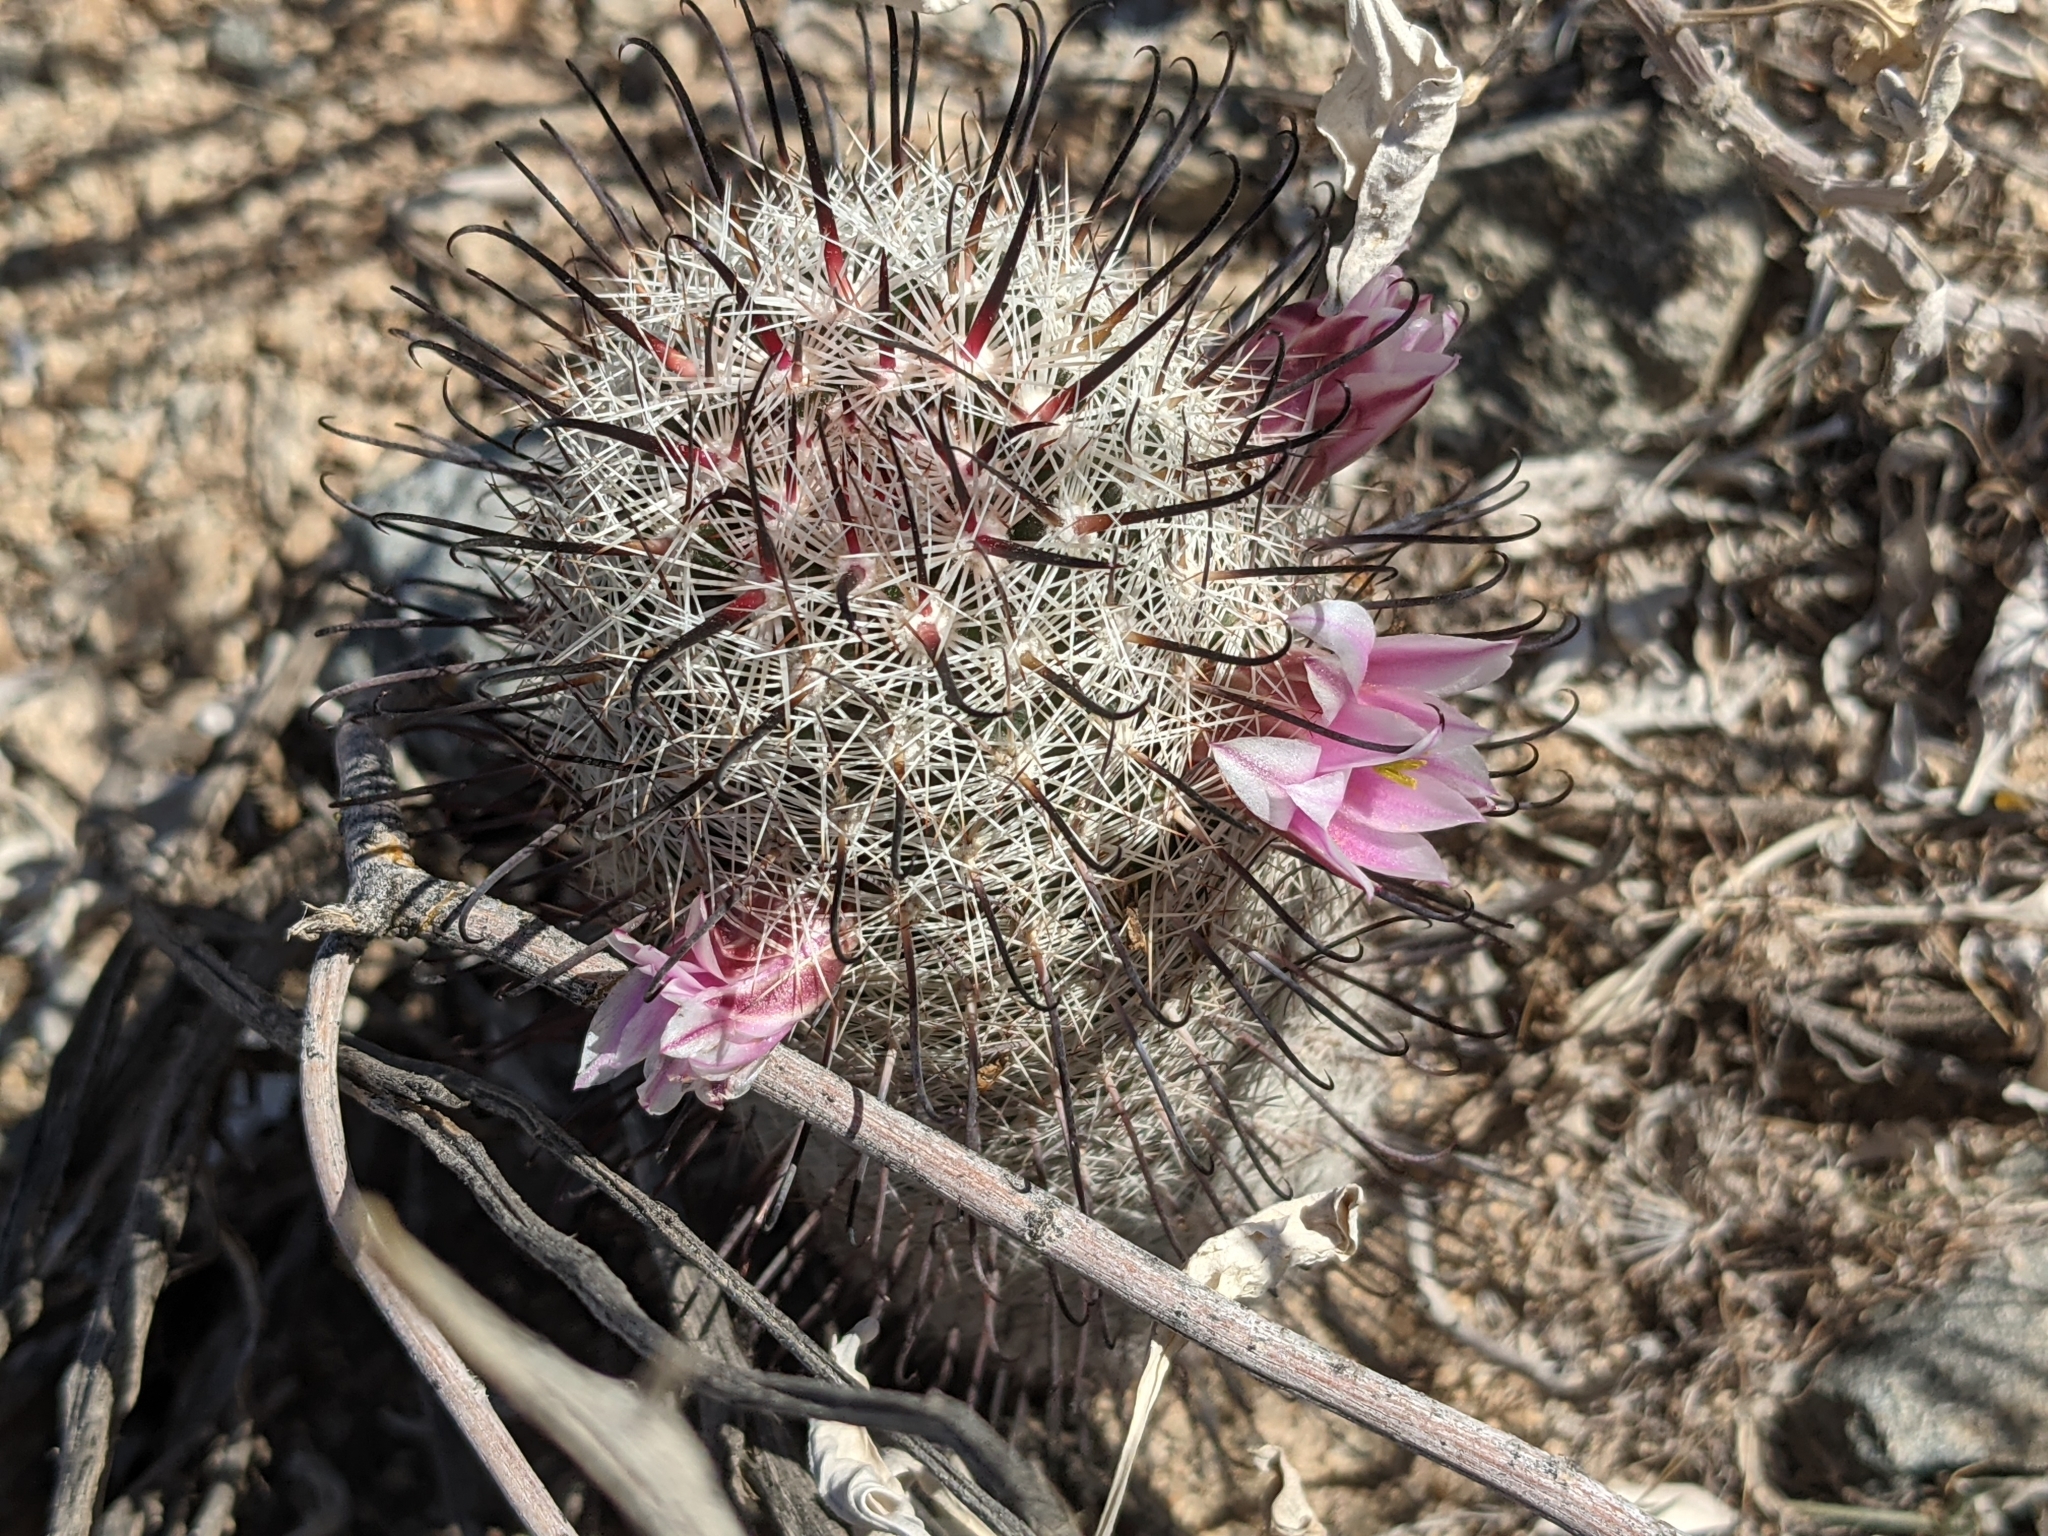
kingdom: Plantae
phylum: Tracheophyta
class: Magnoliopsida
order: Caryophyllales
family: Cactaceae
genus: Cochemiea
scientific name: Cochemiea grahamii
